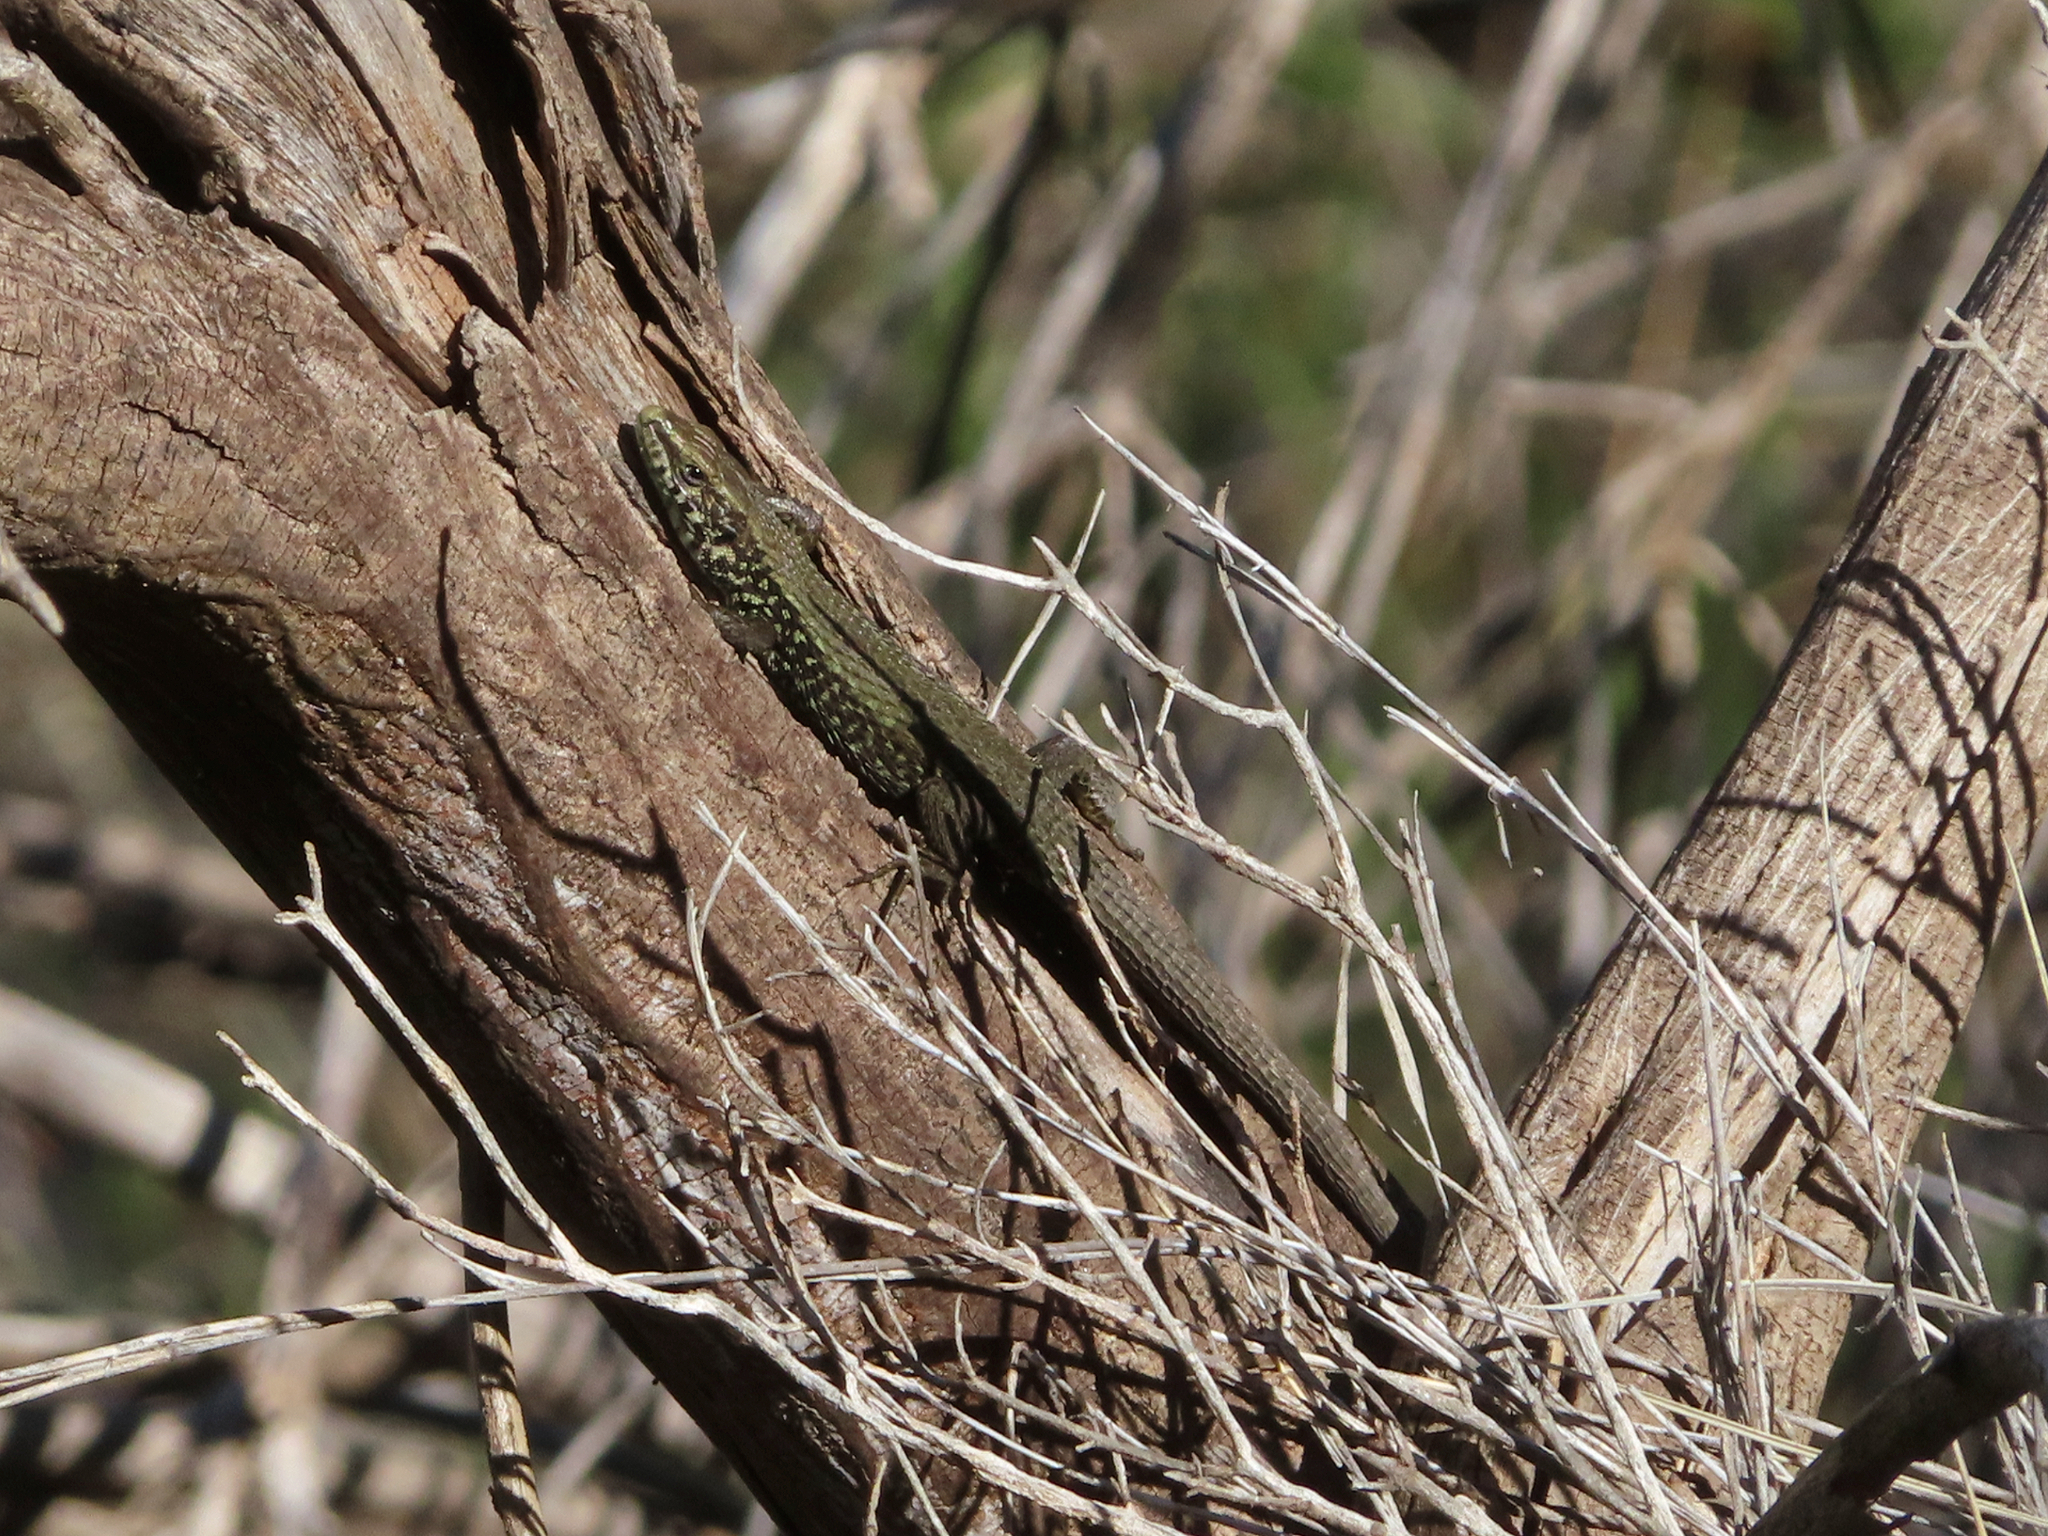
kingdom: Animalia
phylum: Chordata
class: Squamata
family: Lacertidae
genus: Algyroides
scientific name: Algyroides moreoticus
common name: Greek algyroides
